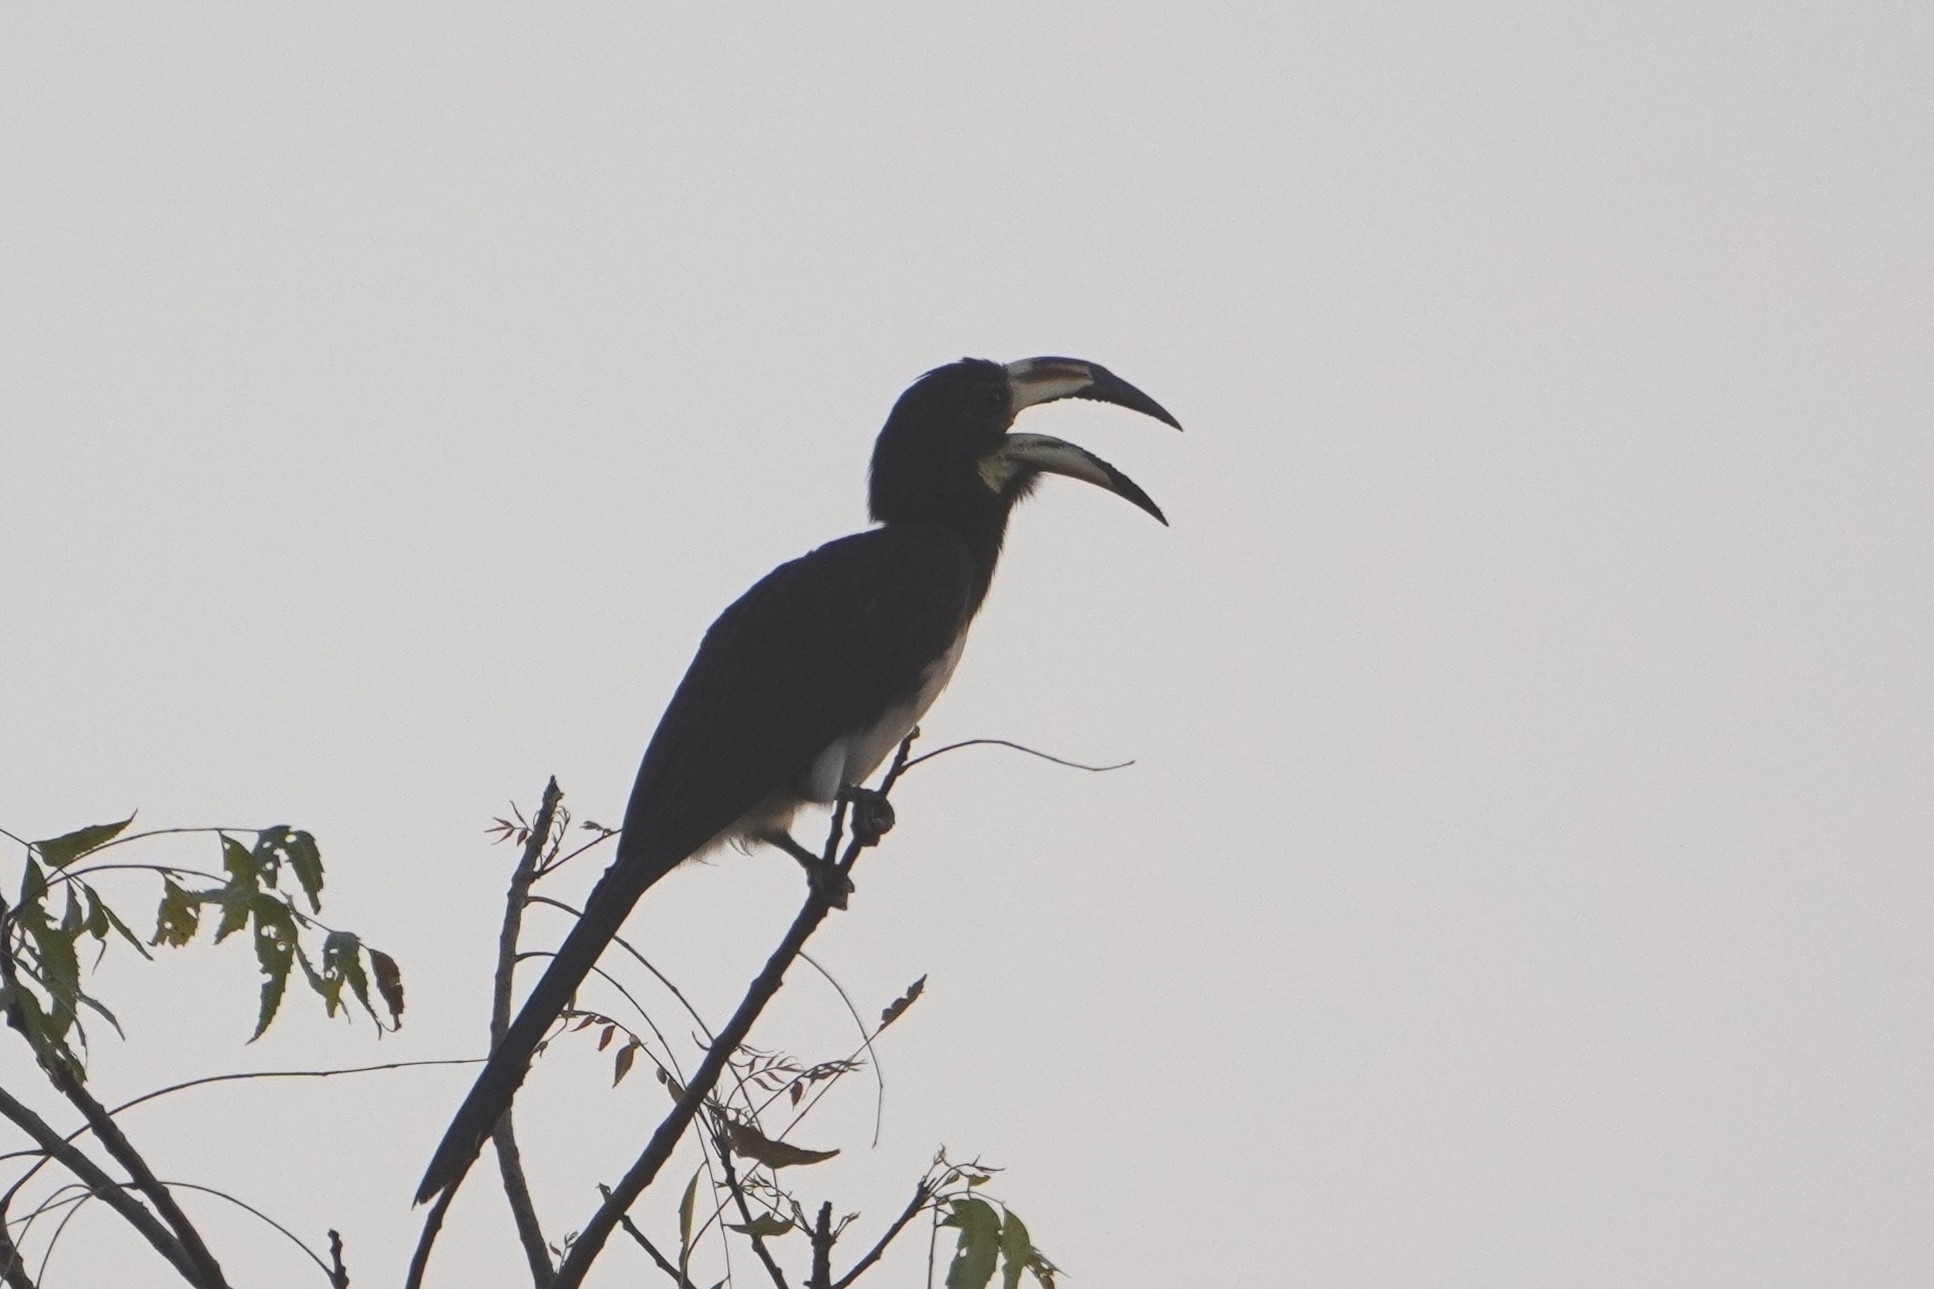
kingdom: Animalia
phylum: Chordata
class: Aves
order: Bucerotiformes
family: Bucerotidae
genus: Lophoceros
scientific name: Lophoceros fasciatus
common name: African pied hornbill
